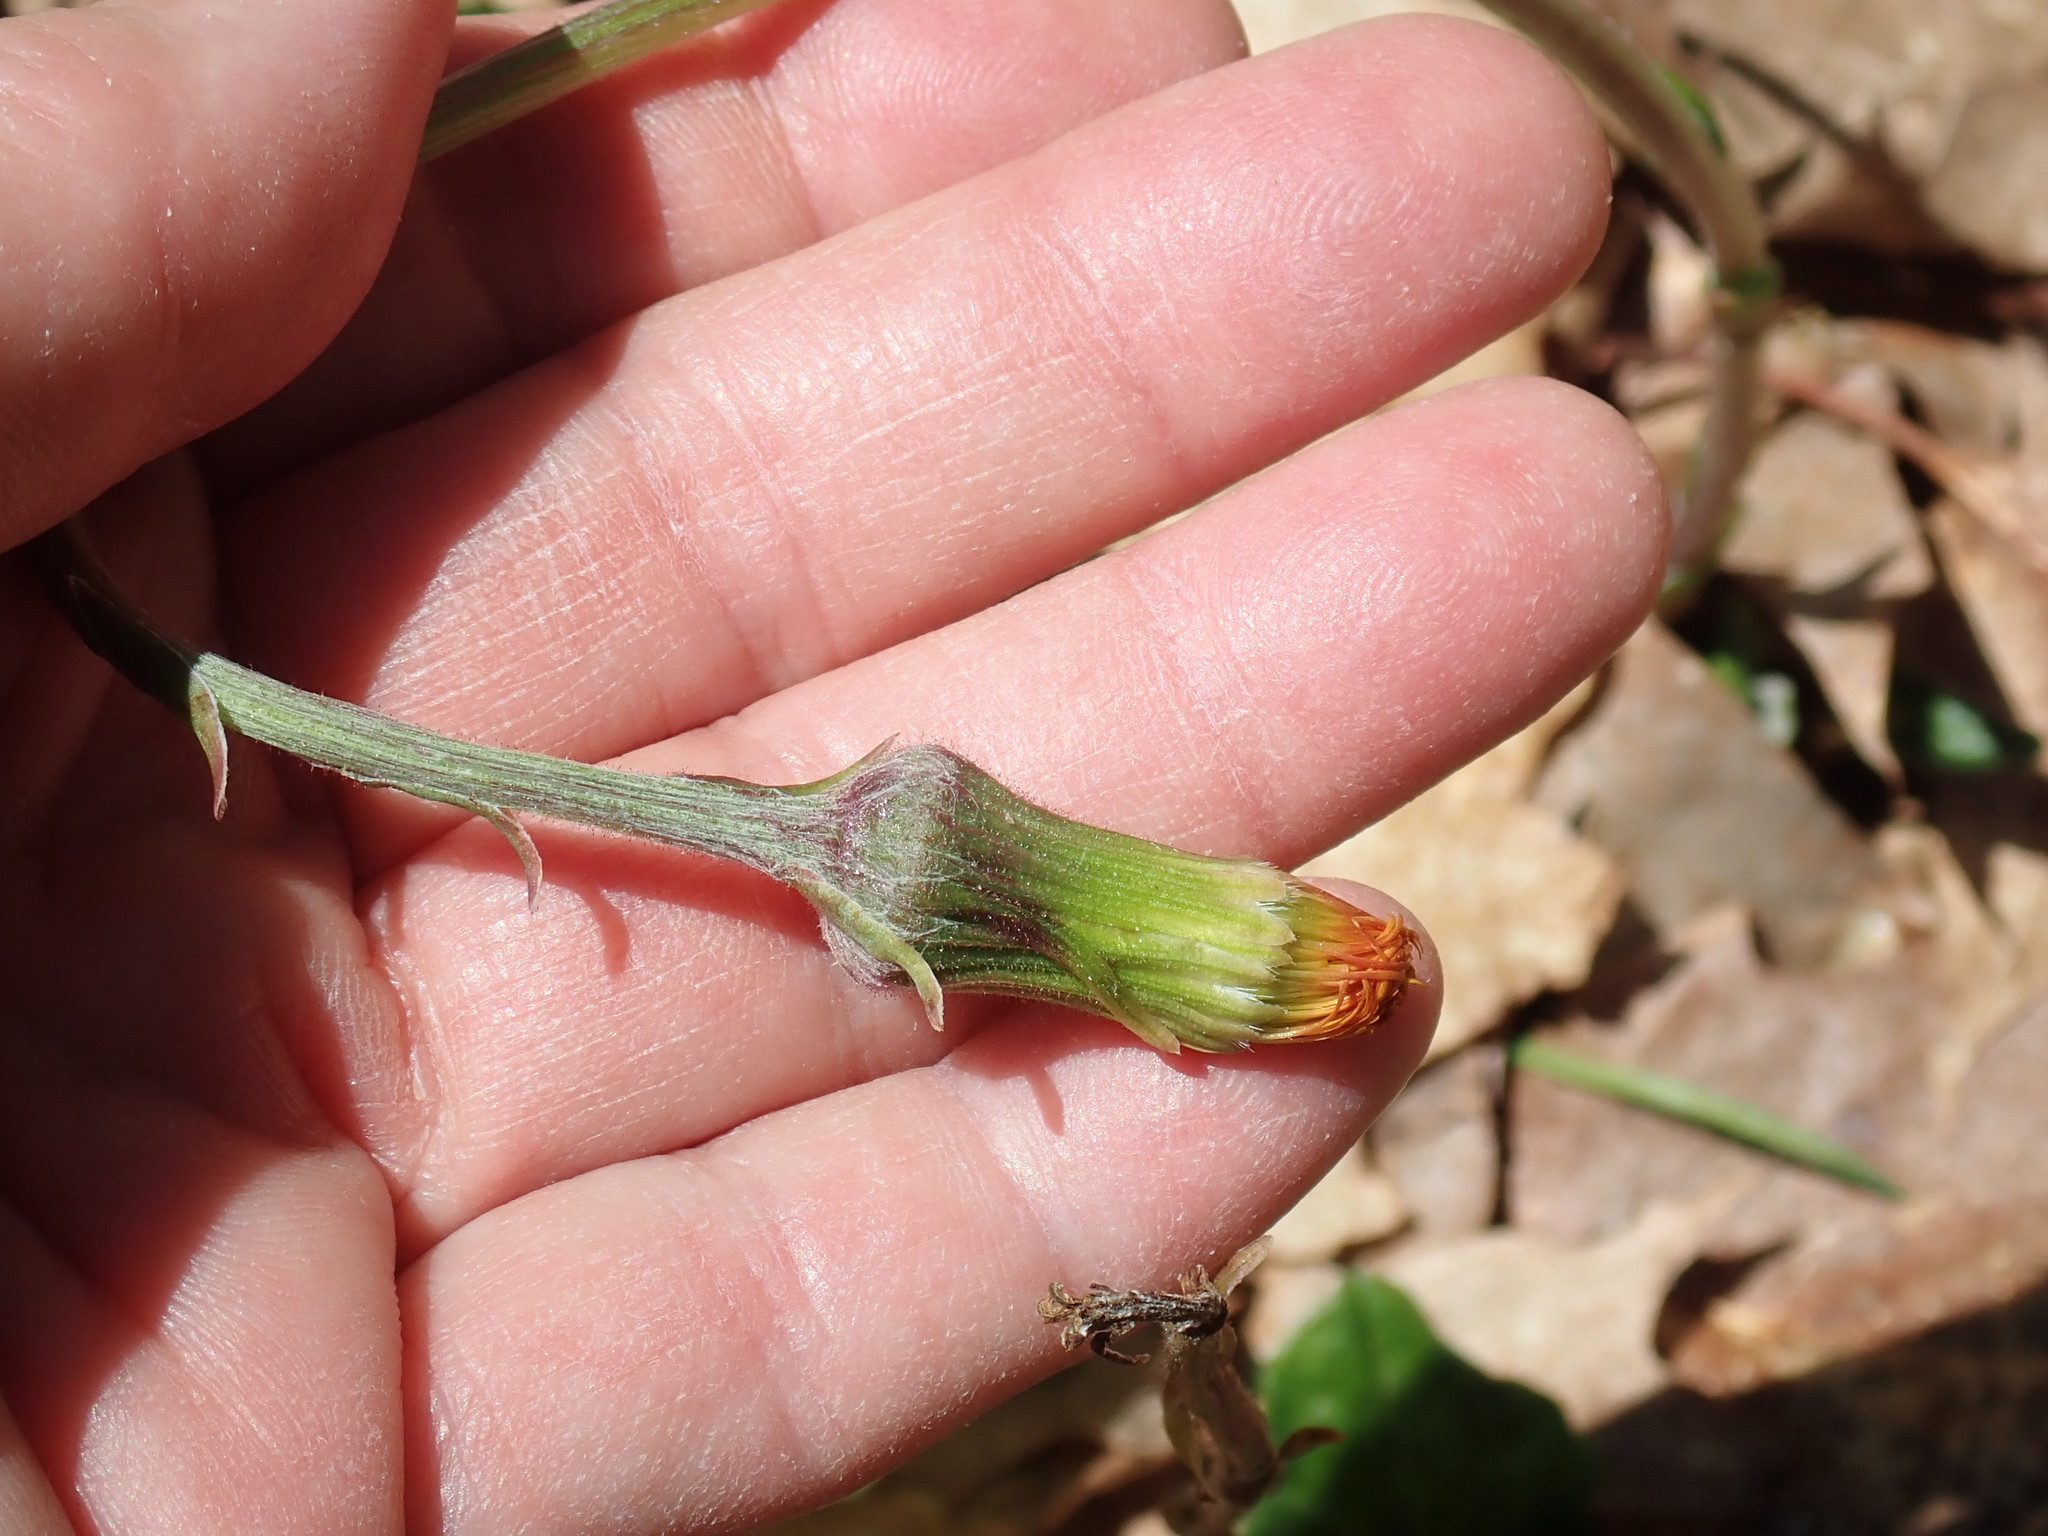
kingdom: Plantae
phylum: Tracheophyta
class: Magnoliopsida
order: Asterales
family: Asteraceae
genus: Tussilago
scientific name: Tussilago farfara
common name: Coltsfoot
